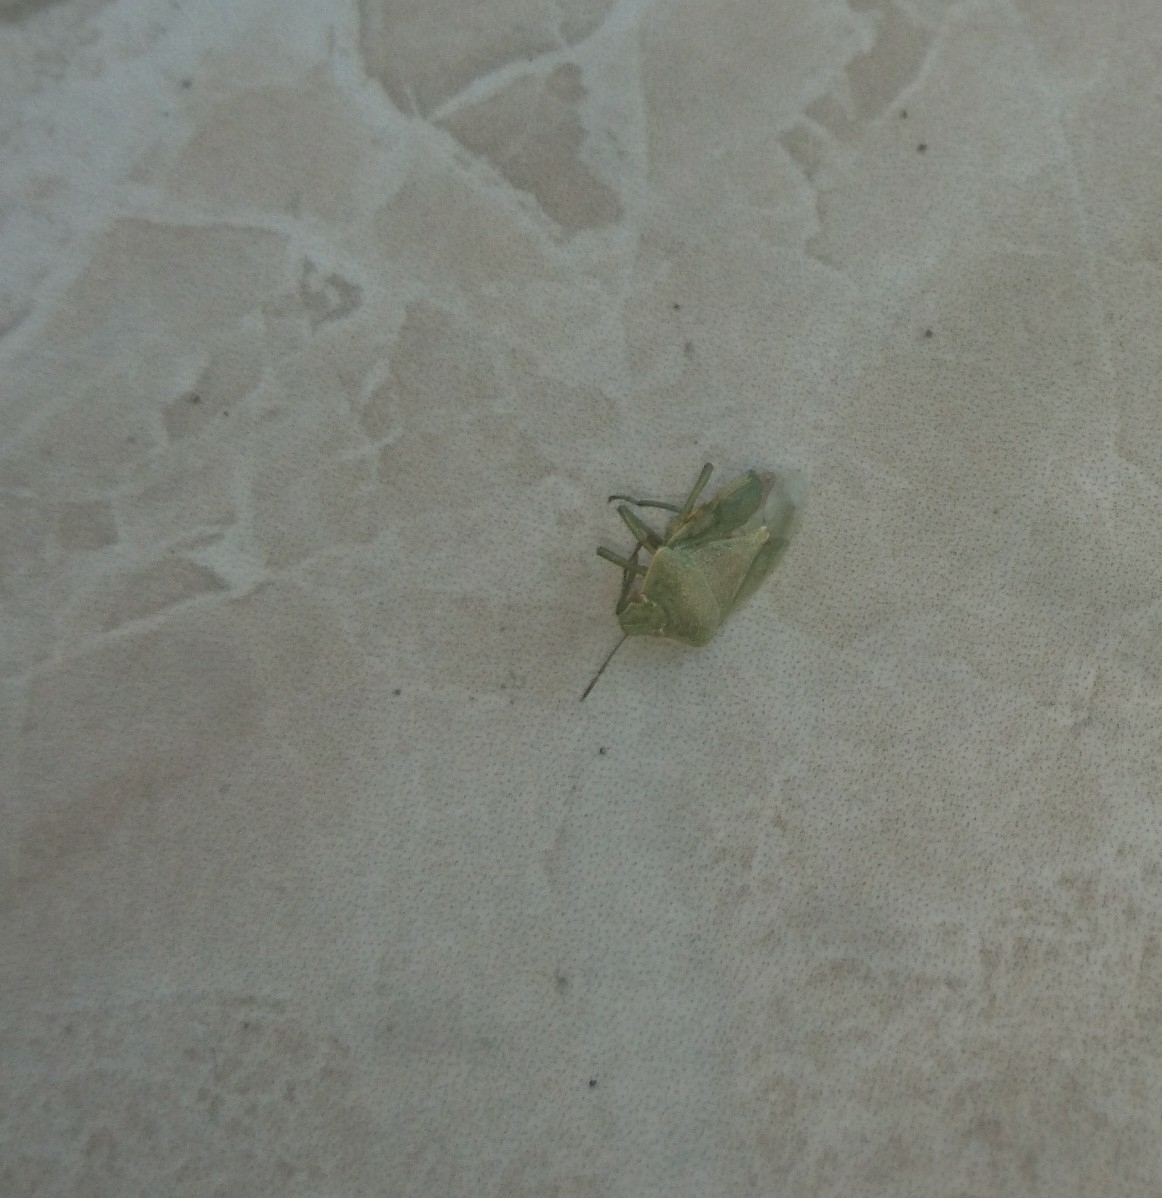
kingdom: Animalia
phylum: Arthropoda
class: Insecta
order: Hemiptera
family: Pentatomidae
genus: Acrosternum
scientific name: Acrosternum
